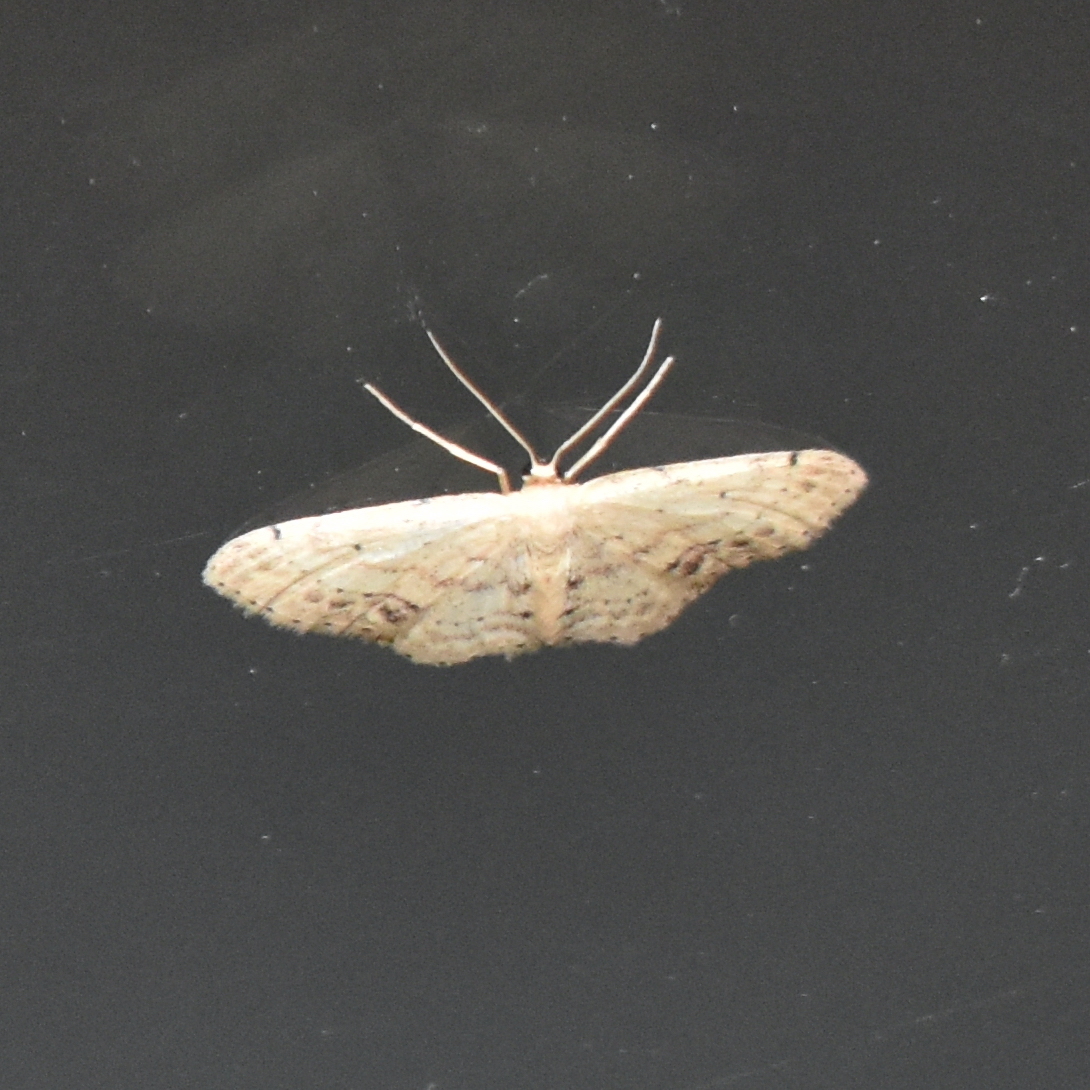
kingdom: Animalia
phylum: Arthropoda
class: Insecta
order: Lepidoptera
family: Geometridae
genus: Idaea
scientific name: Idaea dimidiata
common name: Single-dotted wave
